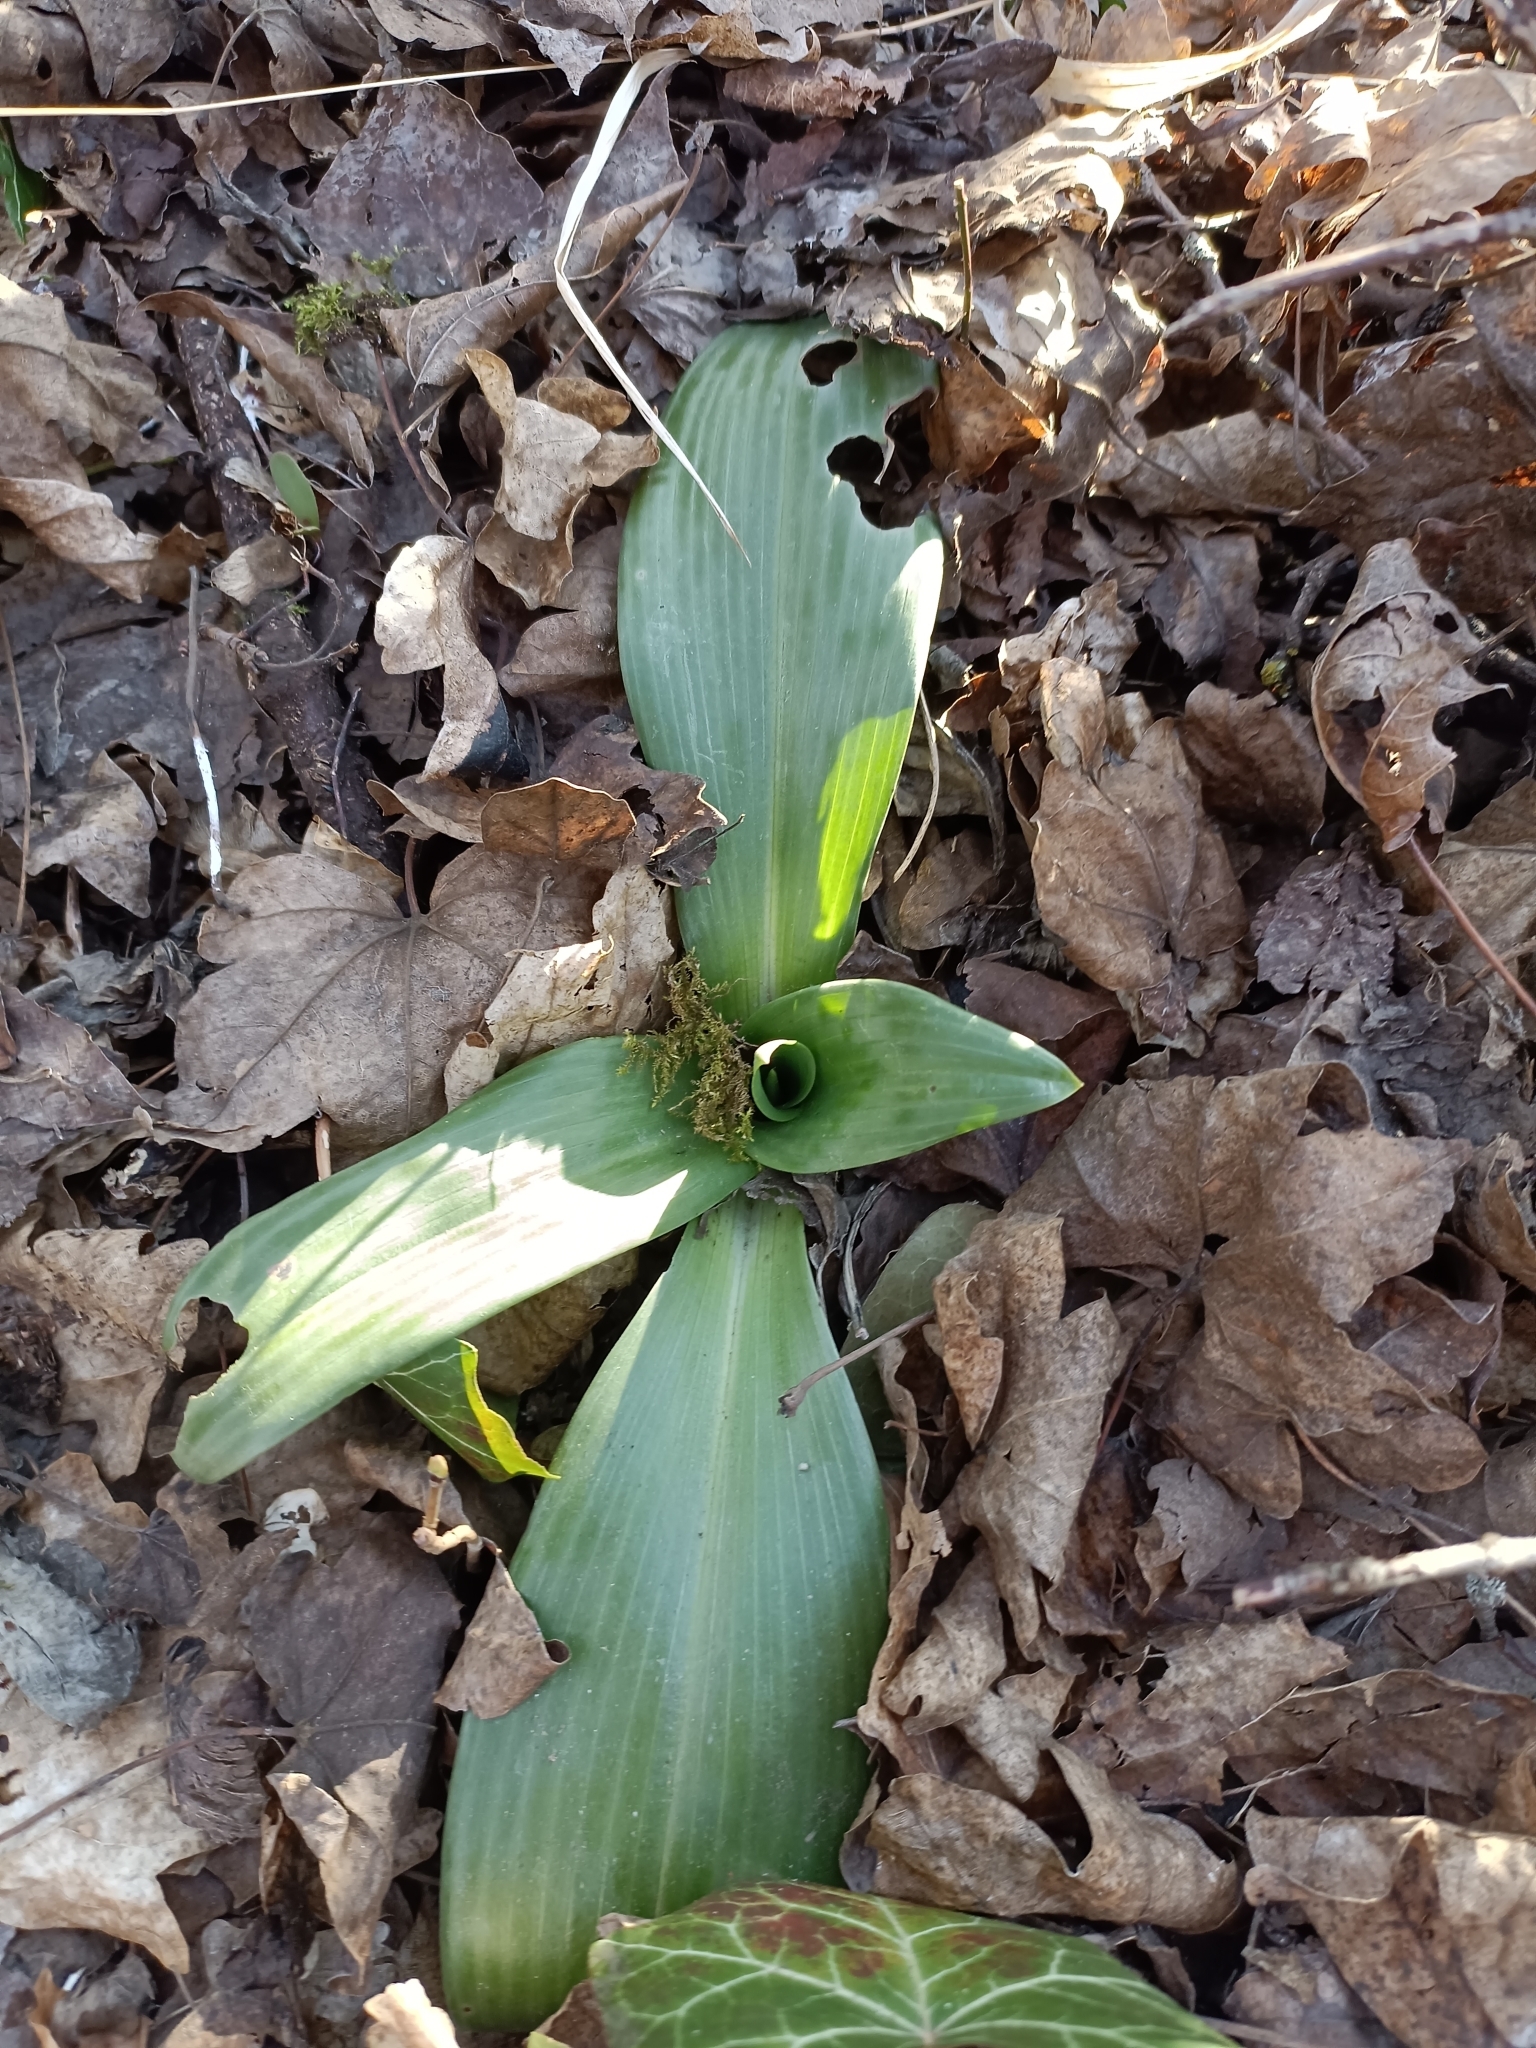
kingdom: Plantae
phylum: Tracheophyta
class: Liliopsida
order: Asparagales
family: Orchidaceae
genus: Himantoglossum
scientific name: Himantoglossum adriaticum
